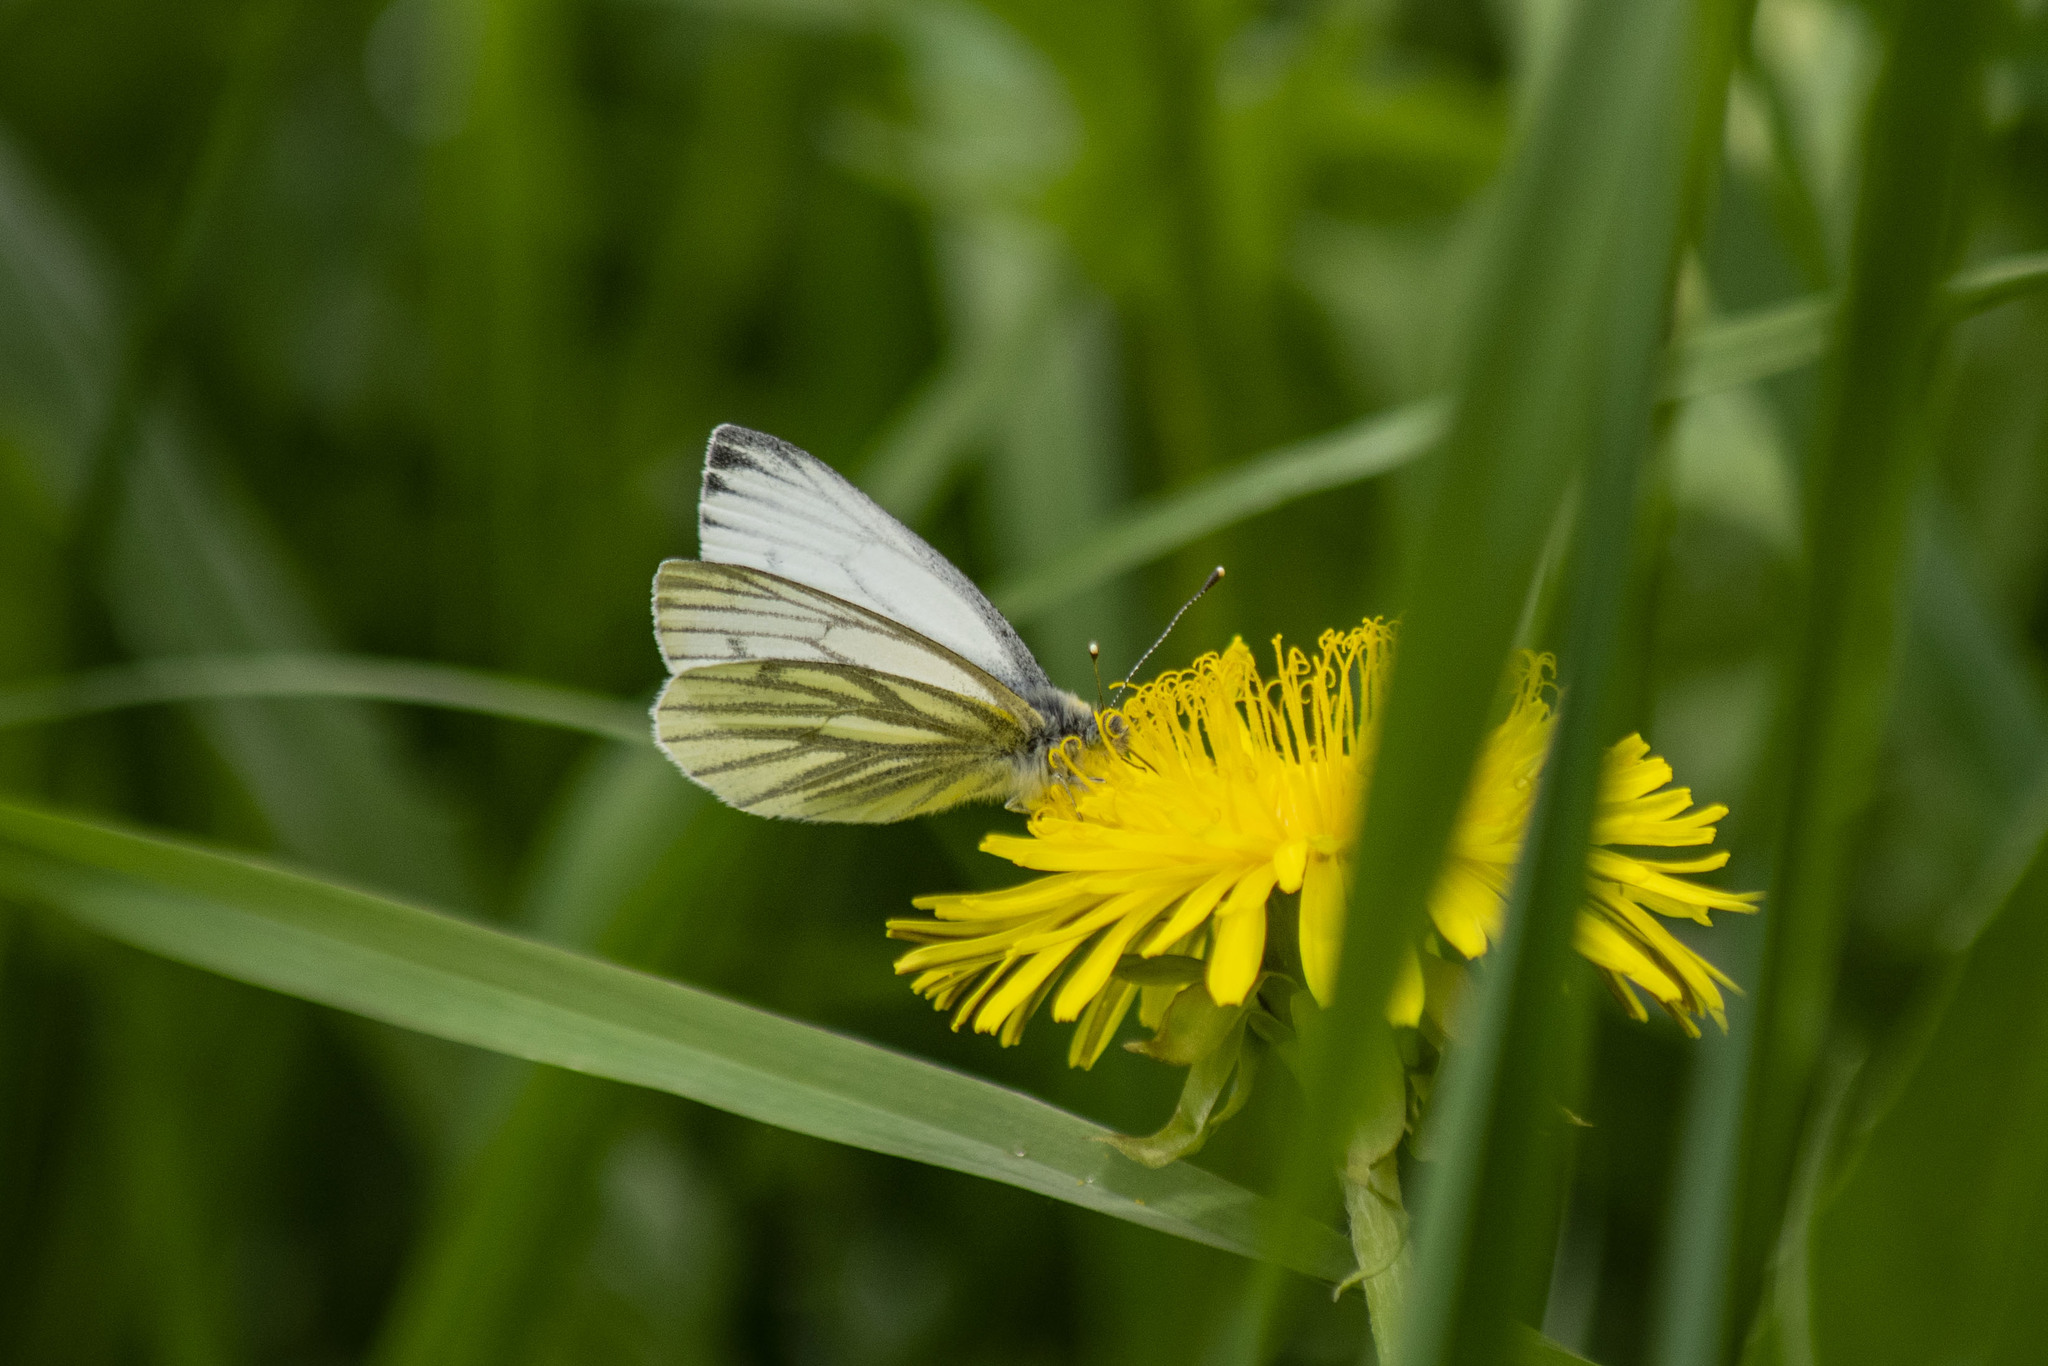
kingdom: Animalia
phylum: Arthropoda
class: Insecta
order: Lepidoptera
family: Pieridae
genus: Pieris
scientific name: Pieris napi
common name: Green-veined white
